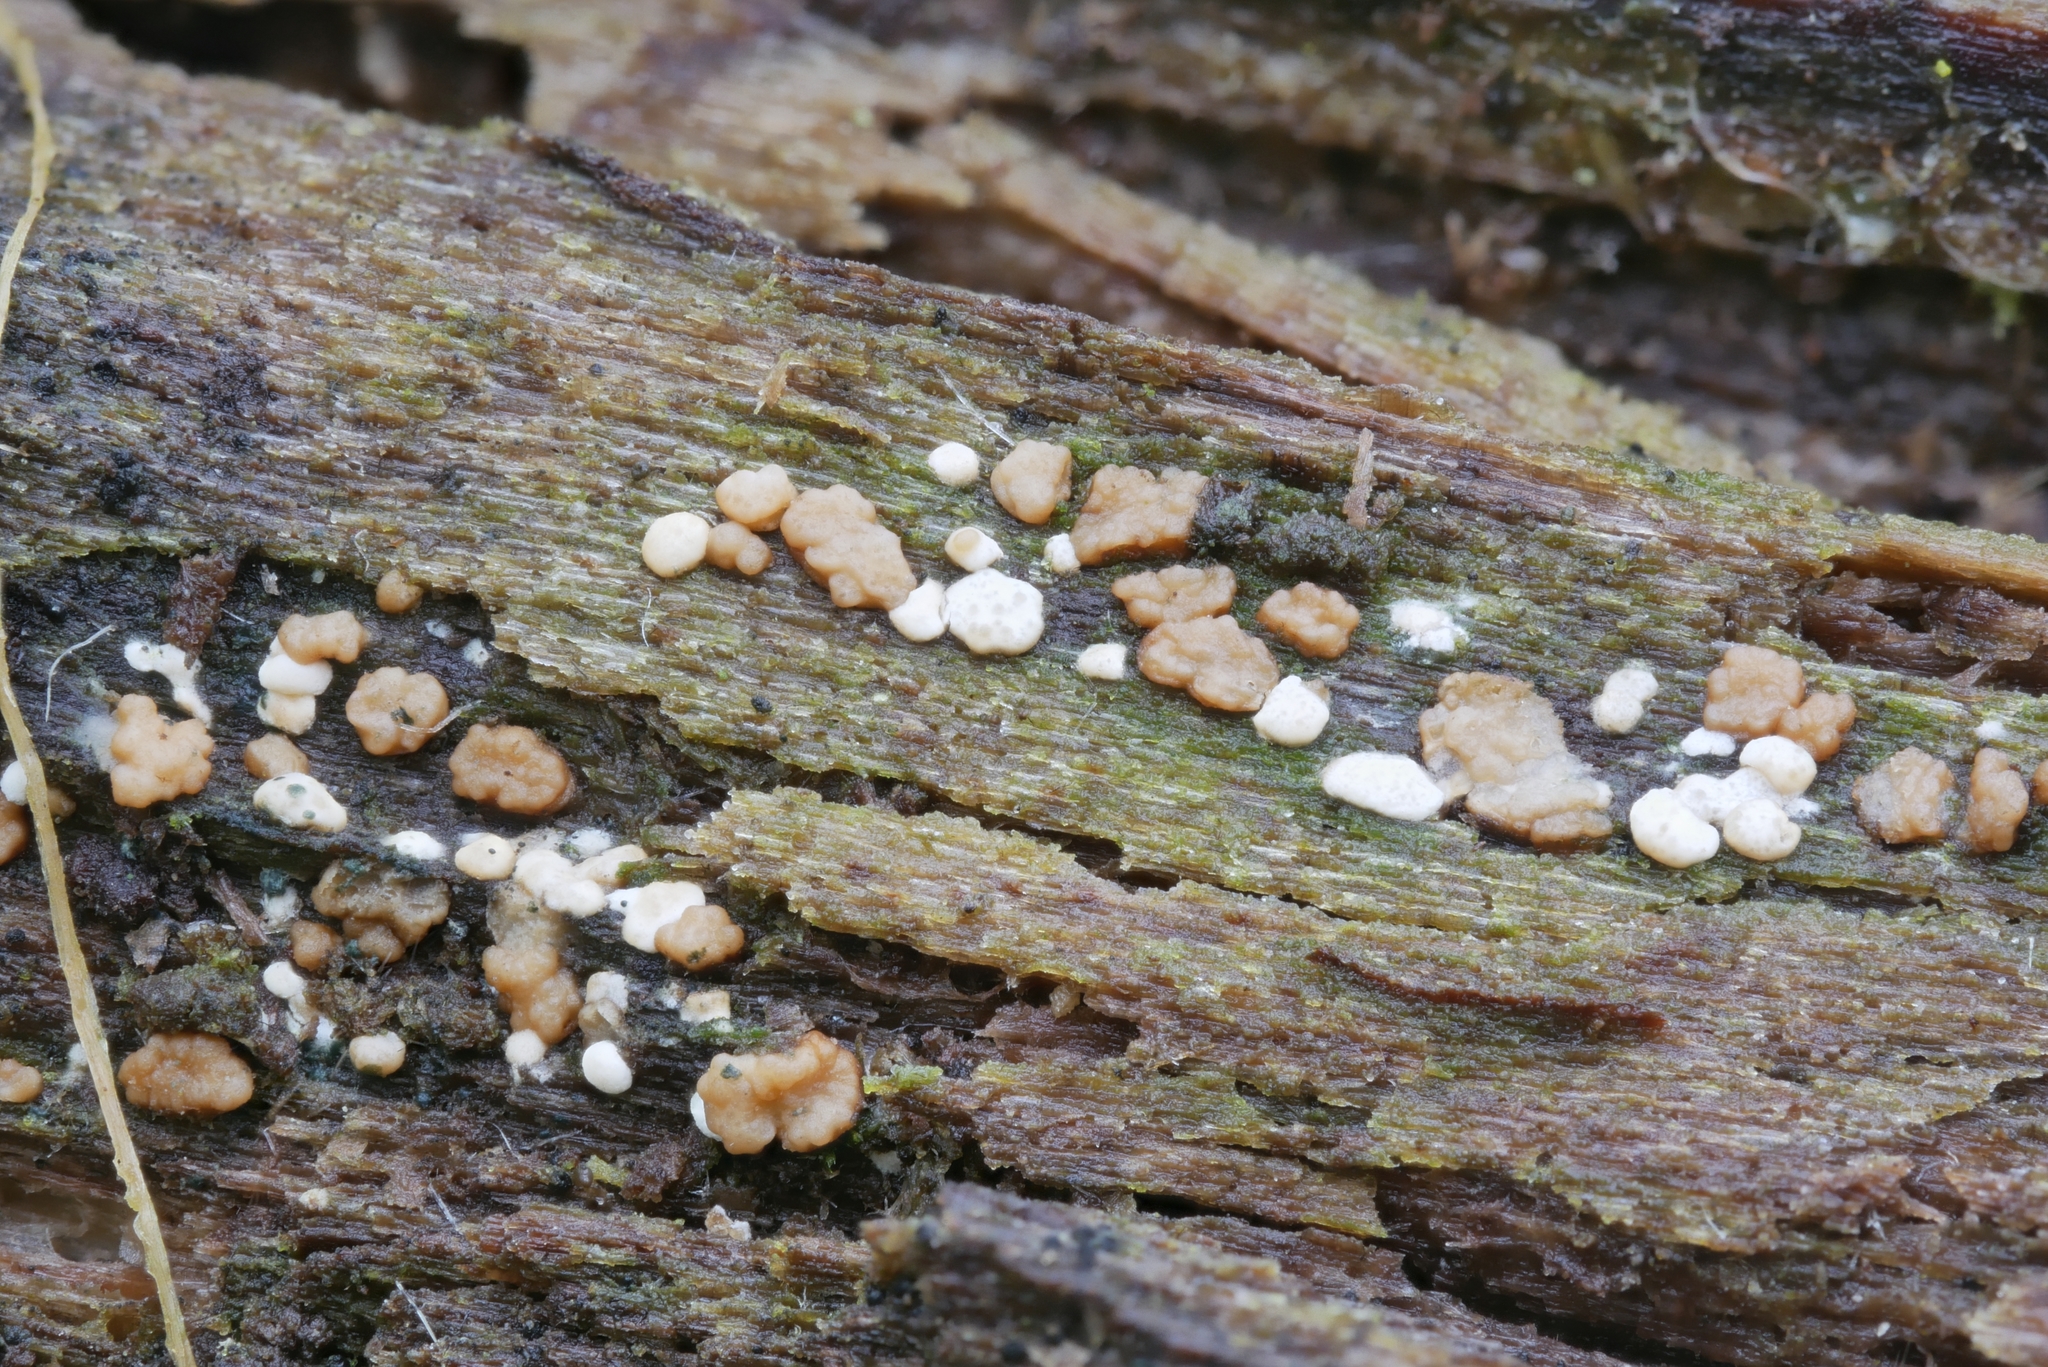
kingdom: Fungi
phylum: Ascomycota
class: Sordariomycetes
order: Hypocreales
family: Hypocreaceae
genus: Trichoderma
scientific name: Trichoderma hamatum
